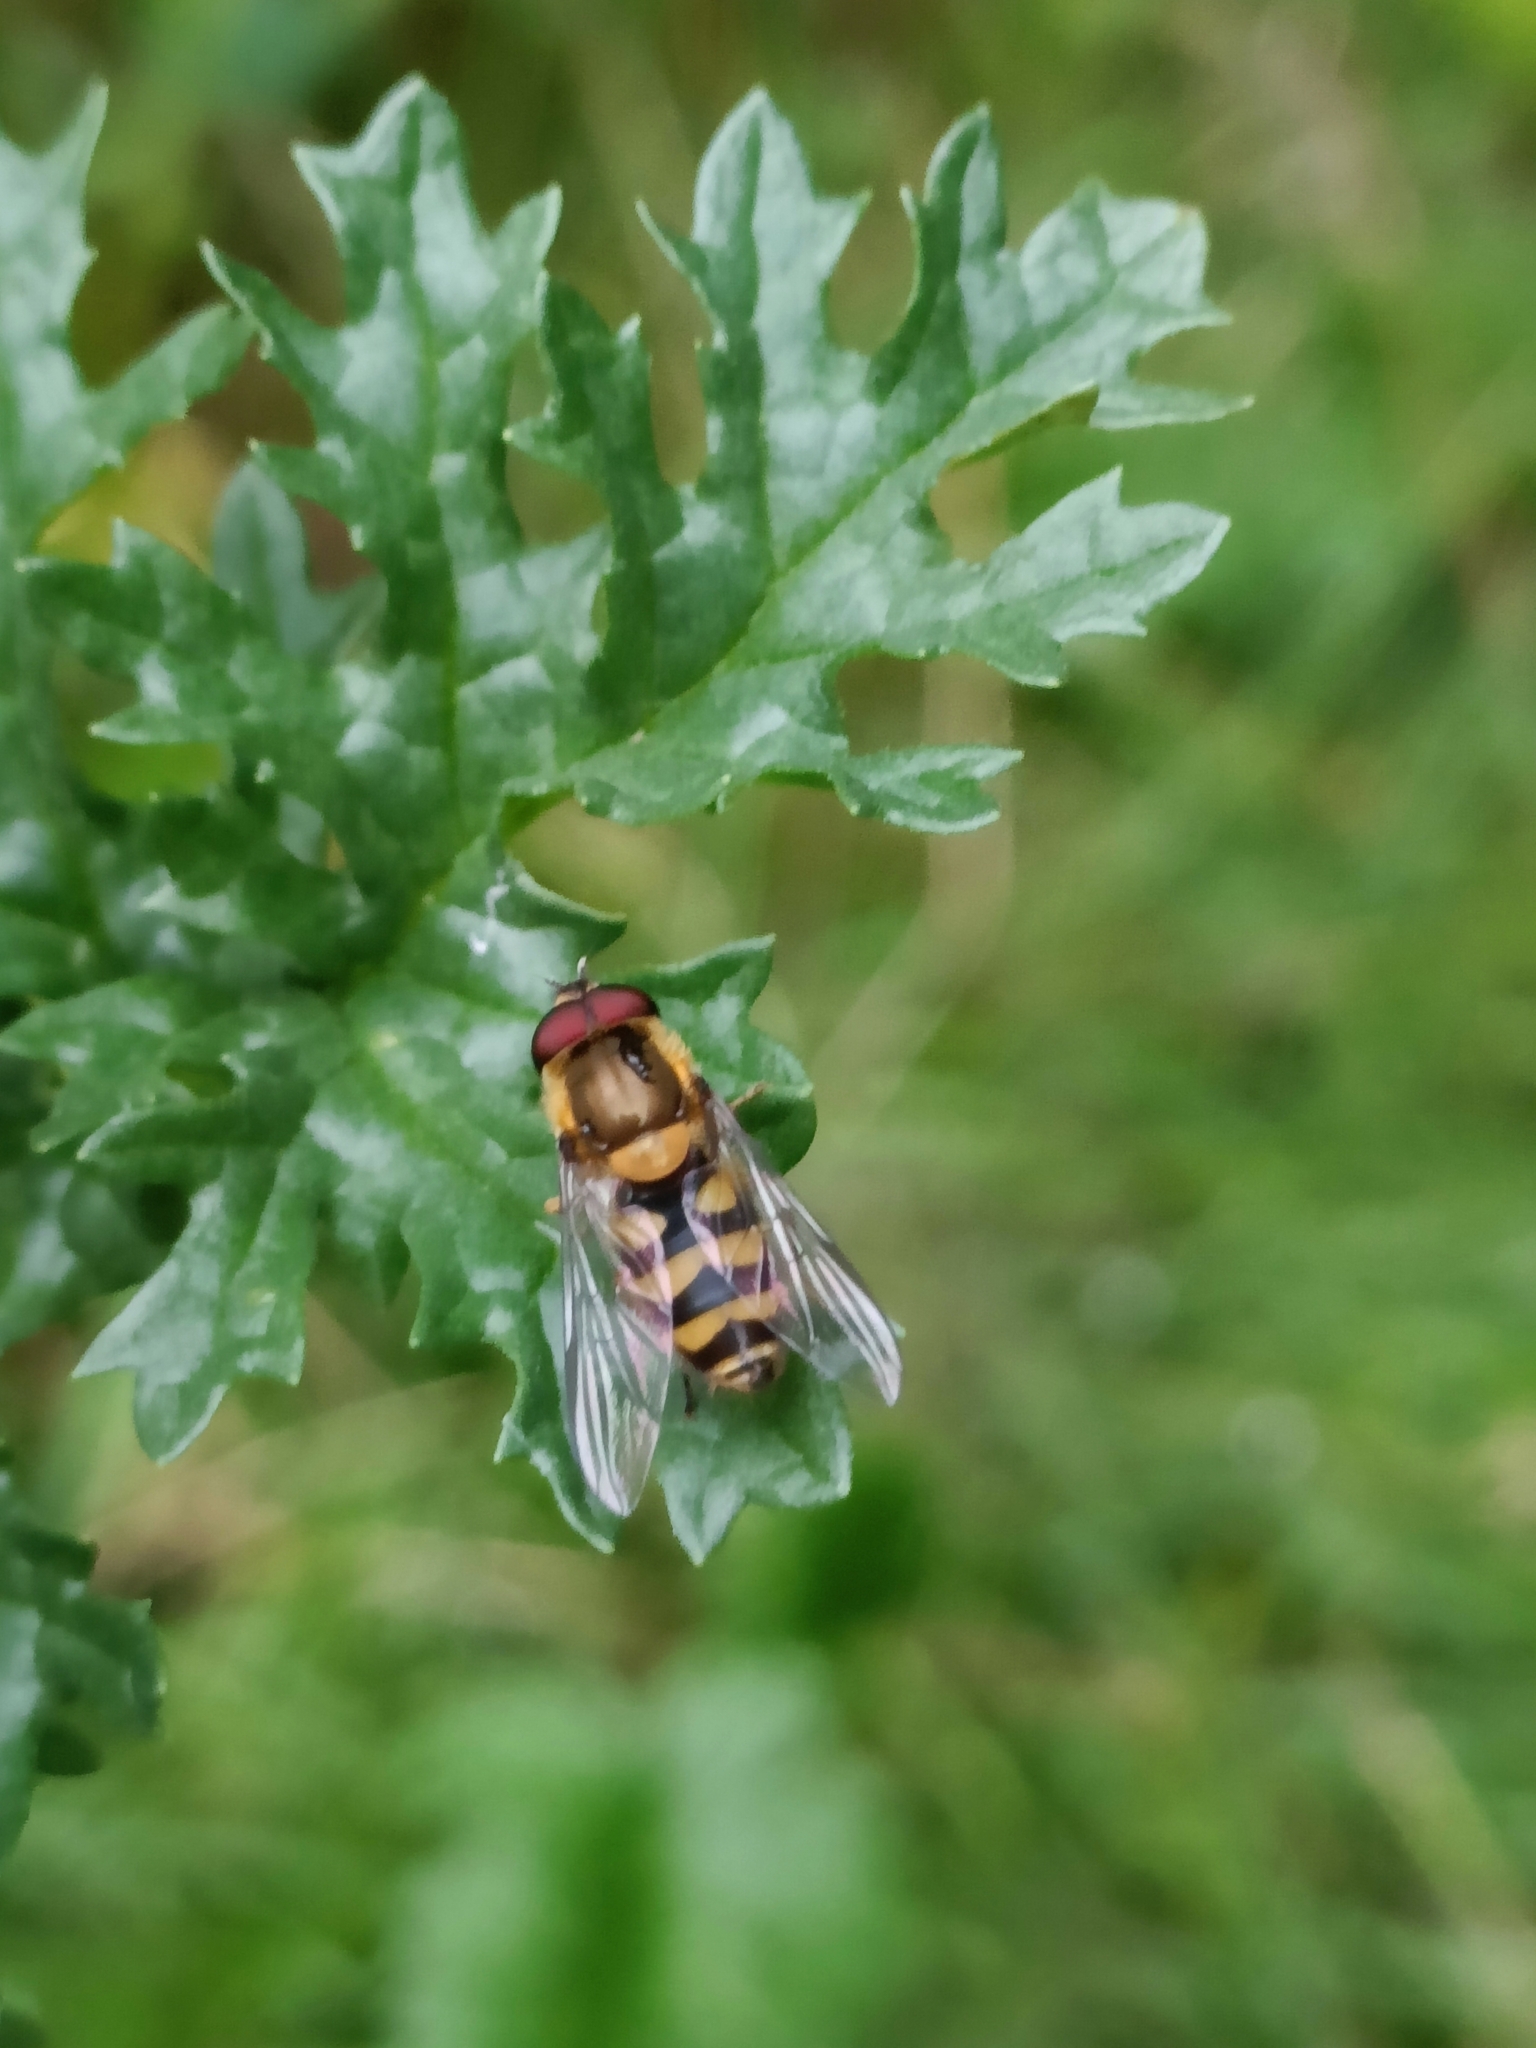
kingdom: Animalia
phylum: Arthropoda
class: Insecta
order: Diptera
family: Syrphidae
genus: Syrphus
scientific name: Syrphus
